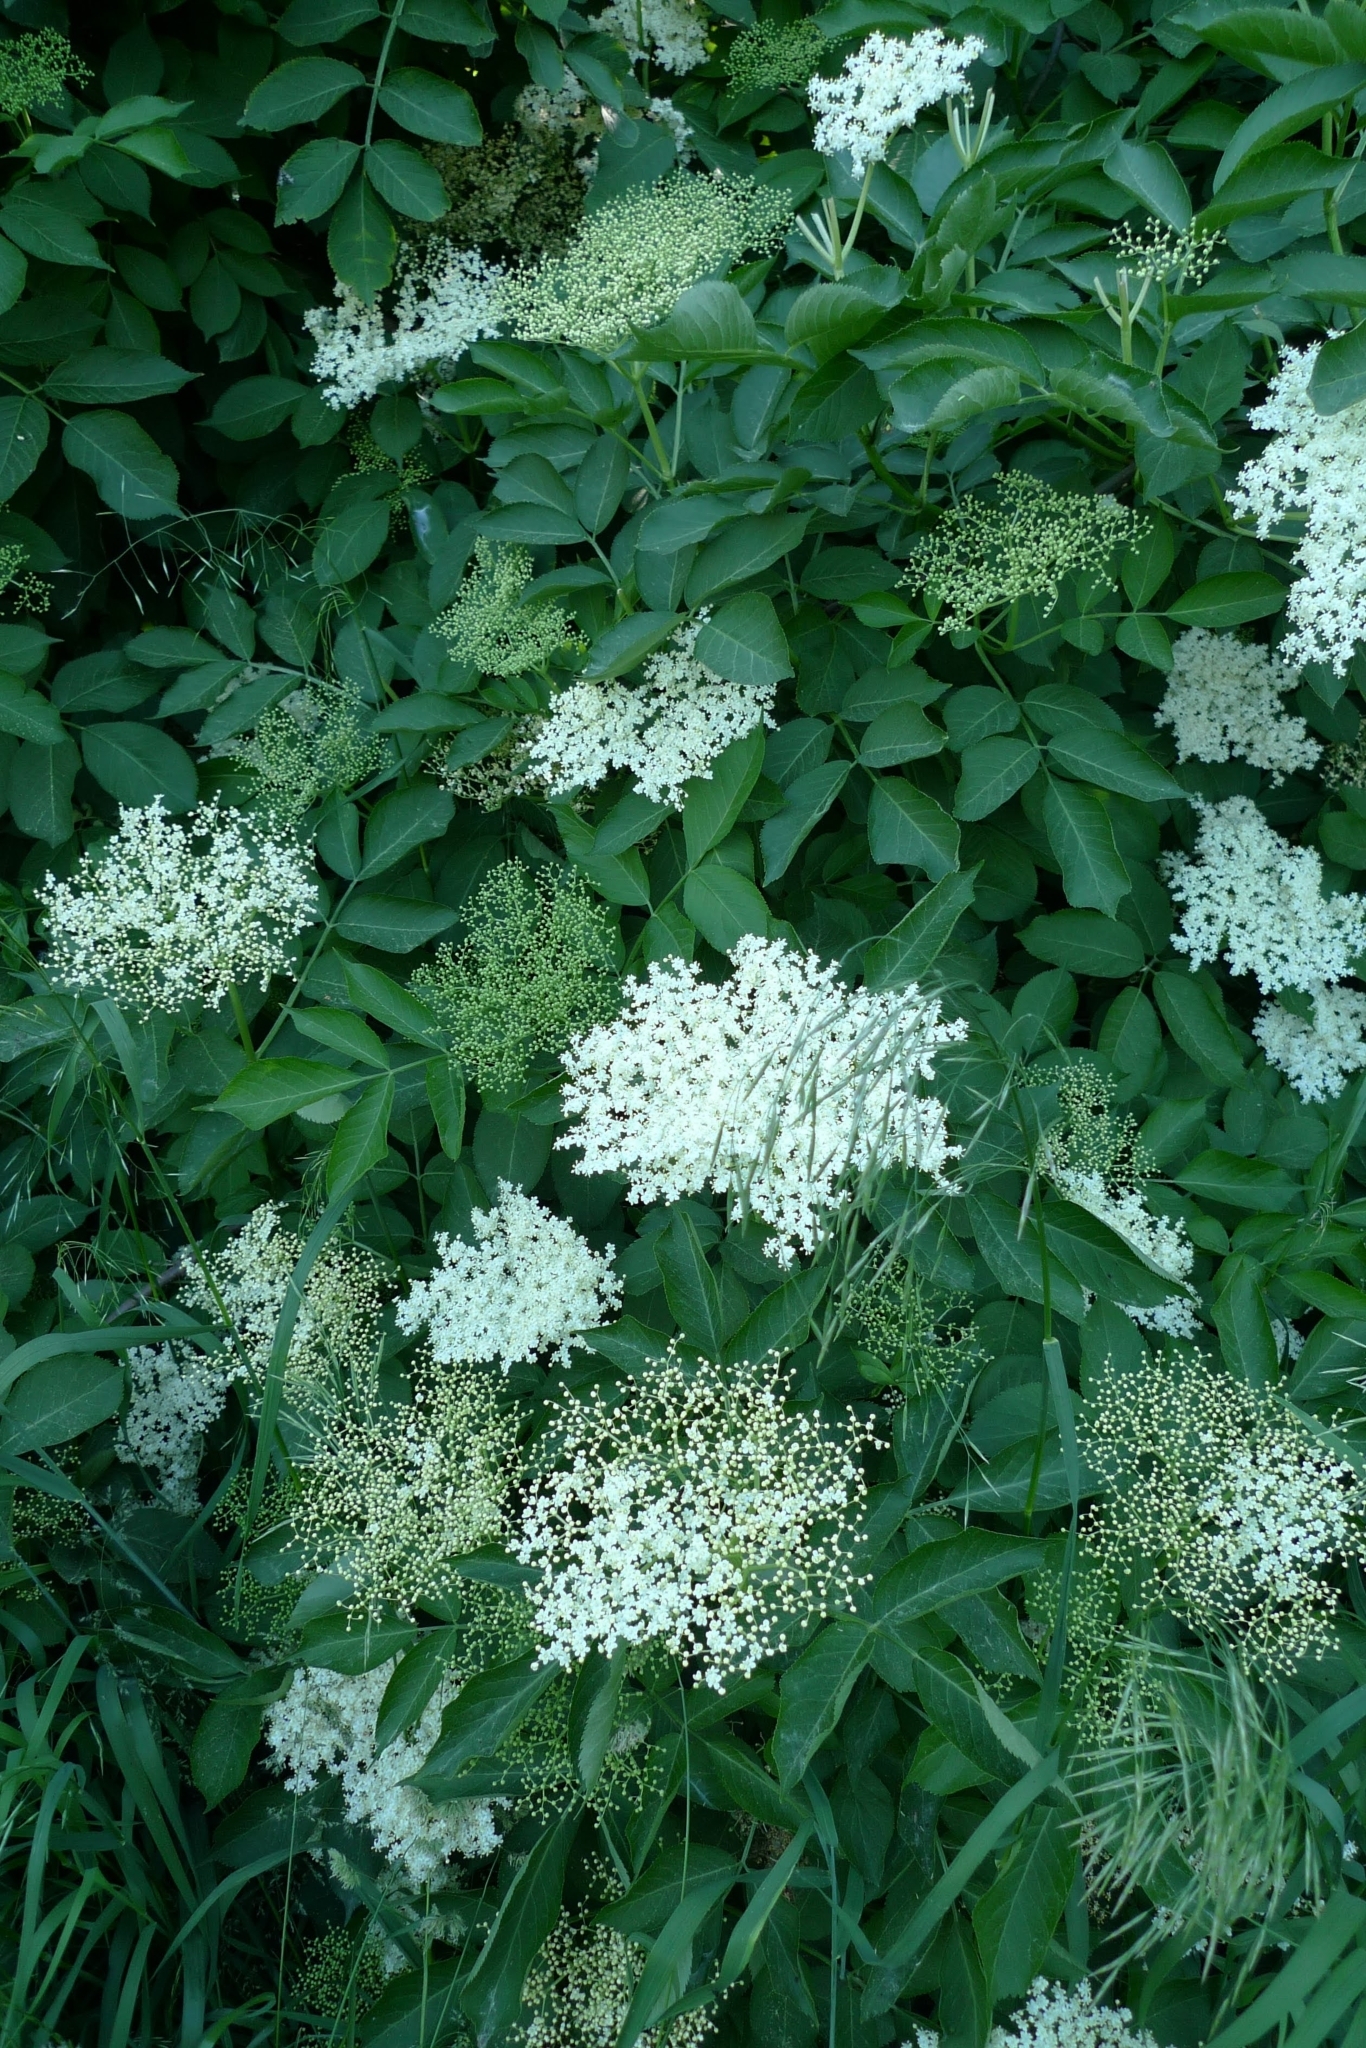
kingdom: Plantae
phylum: Tracheophyta
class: Magnoliopsida
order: Dipsacales
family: Viburnaceae
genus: Sambucus
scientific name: Sambucus nigra
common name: Elder
